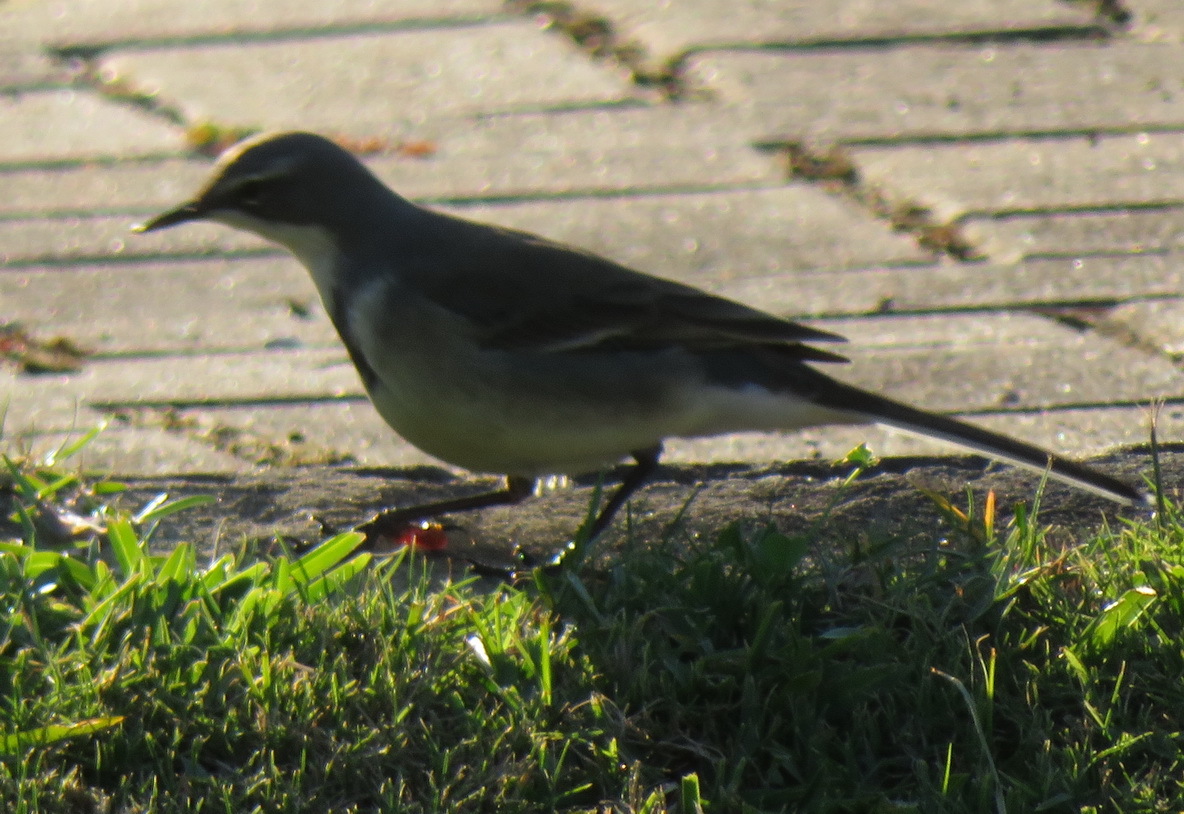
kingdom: Animalia
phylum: Chordata
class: Aves
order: Passeriformes
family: Motacillidae
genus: Motacilla
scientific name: Motacilla capensis
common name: Cape wagtail
